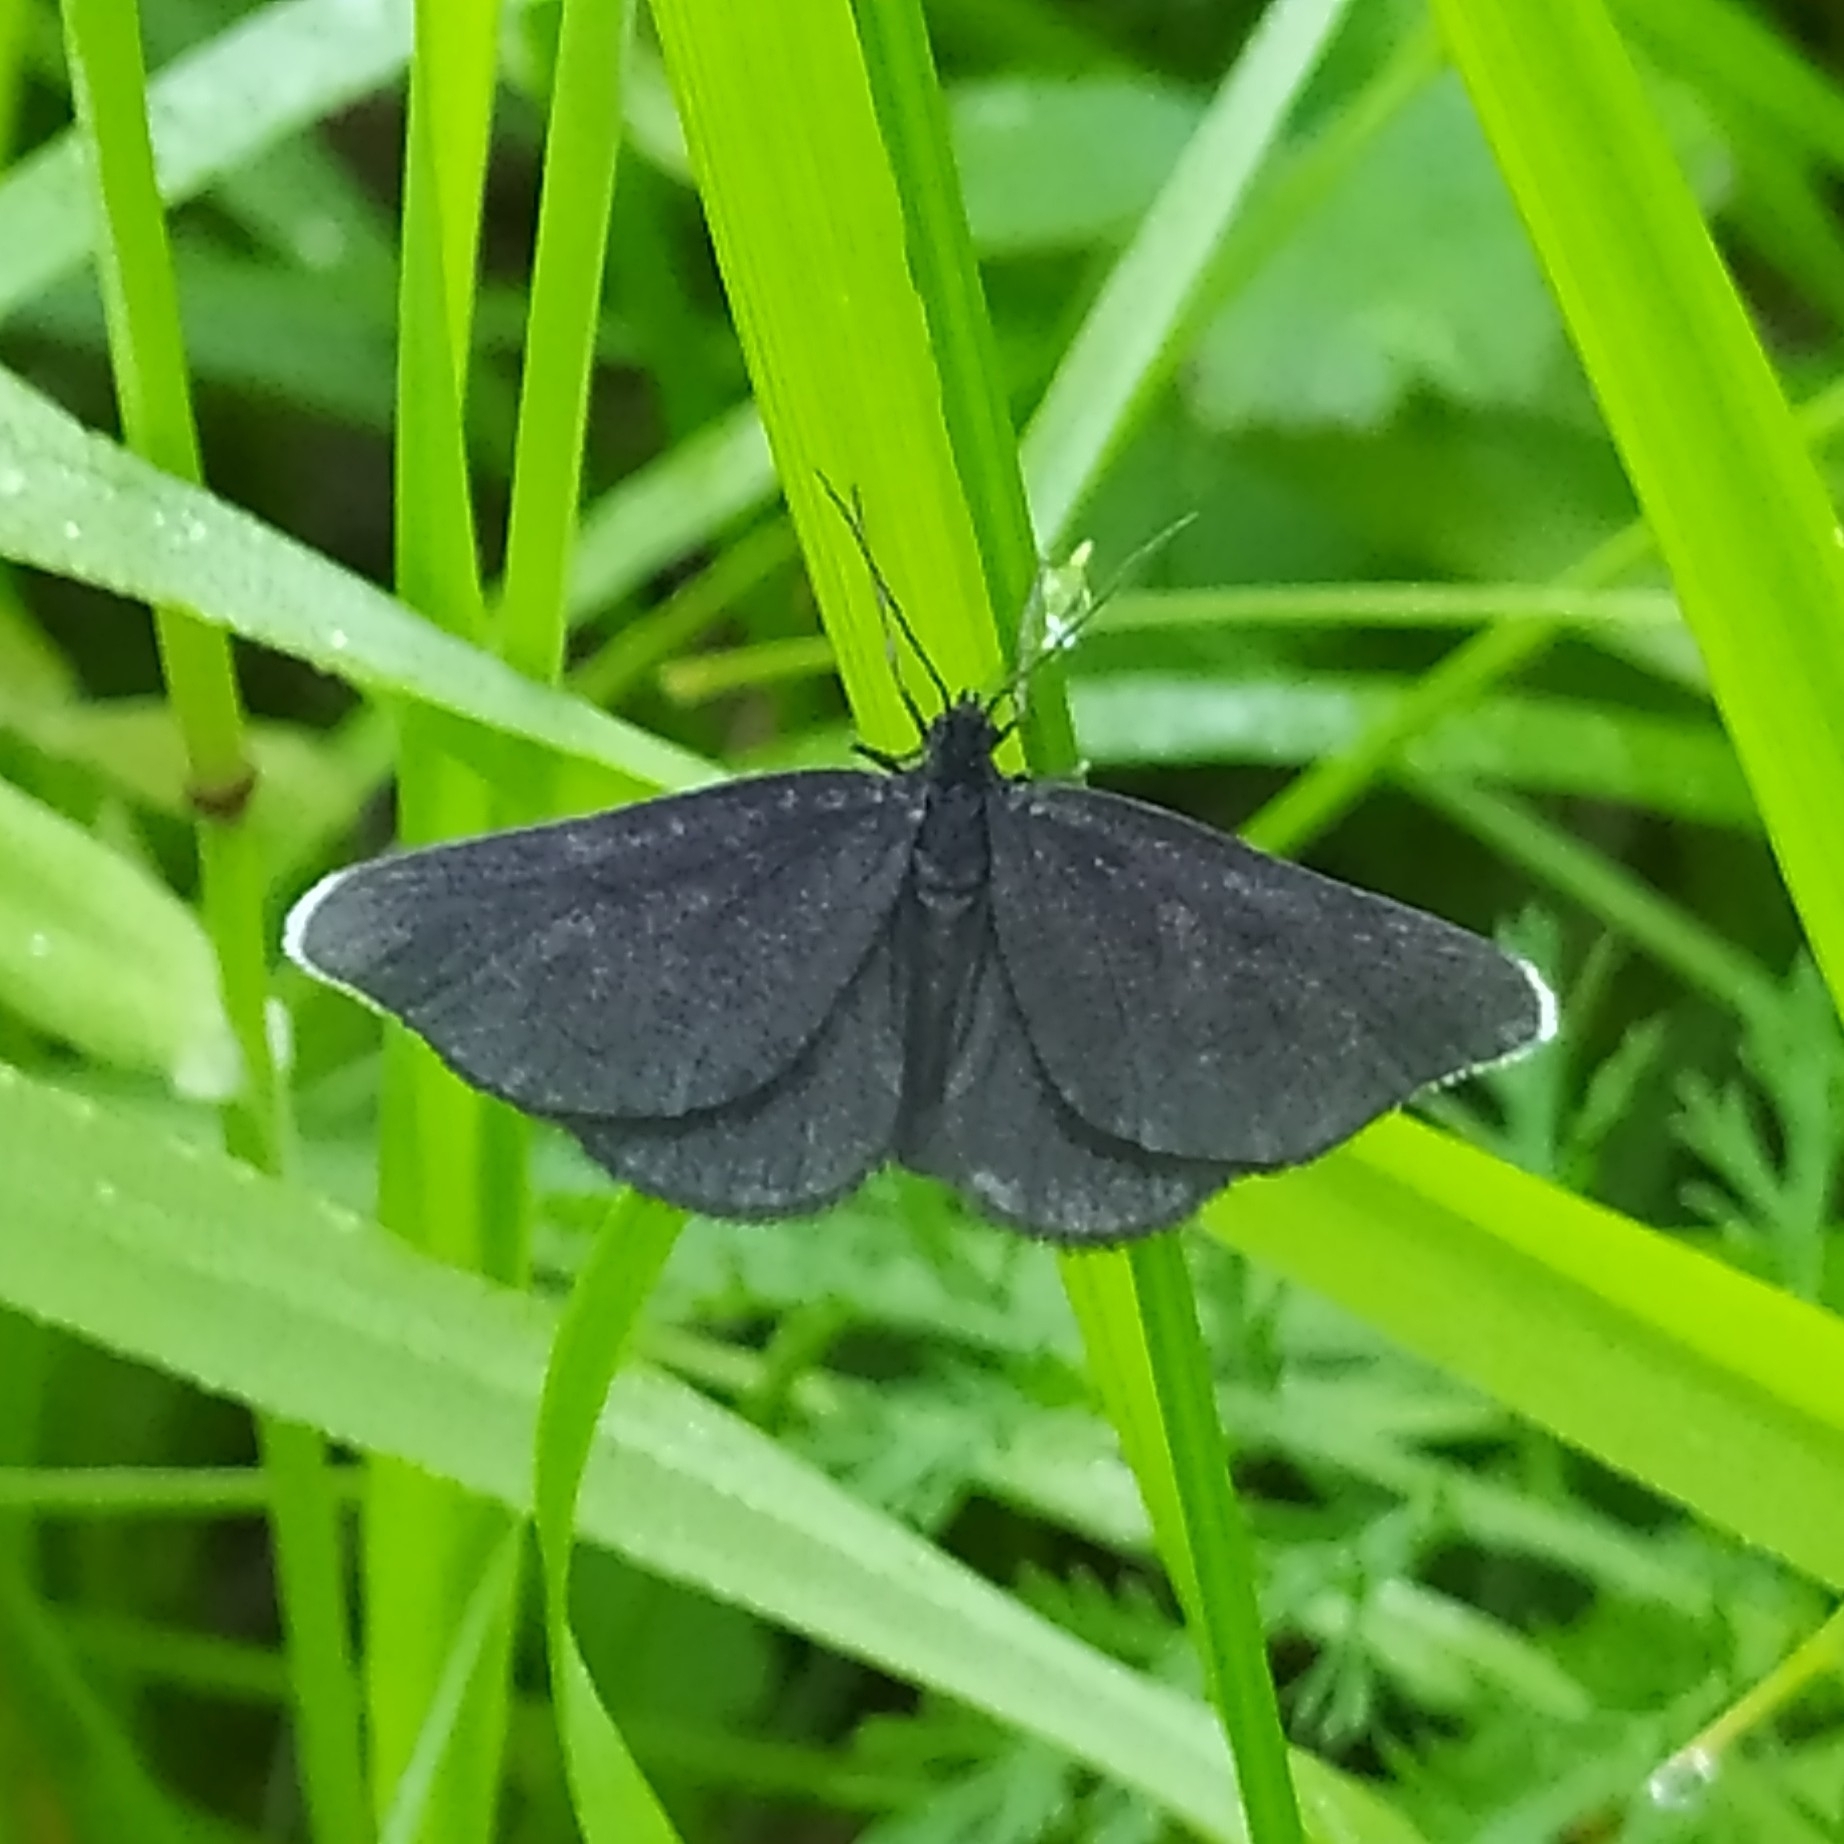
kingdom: Animalia
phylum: Arthropoda
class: Insecta
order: Lepidoptera
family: Geometridae
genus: Odezia
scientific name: Odezia atrata
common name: Chimney sweeper
